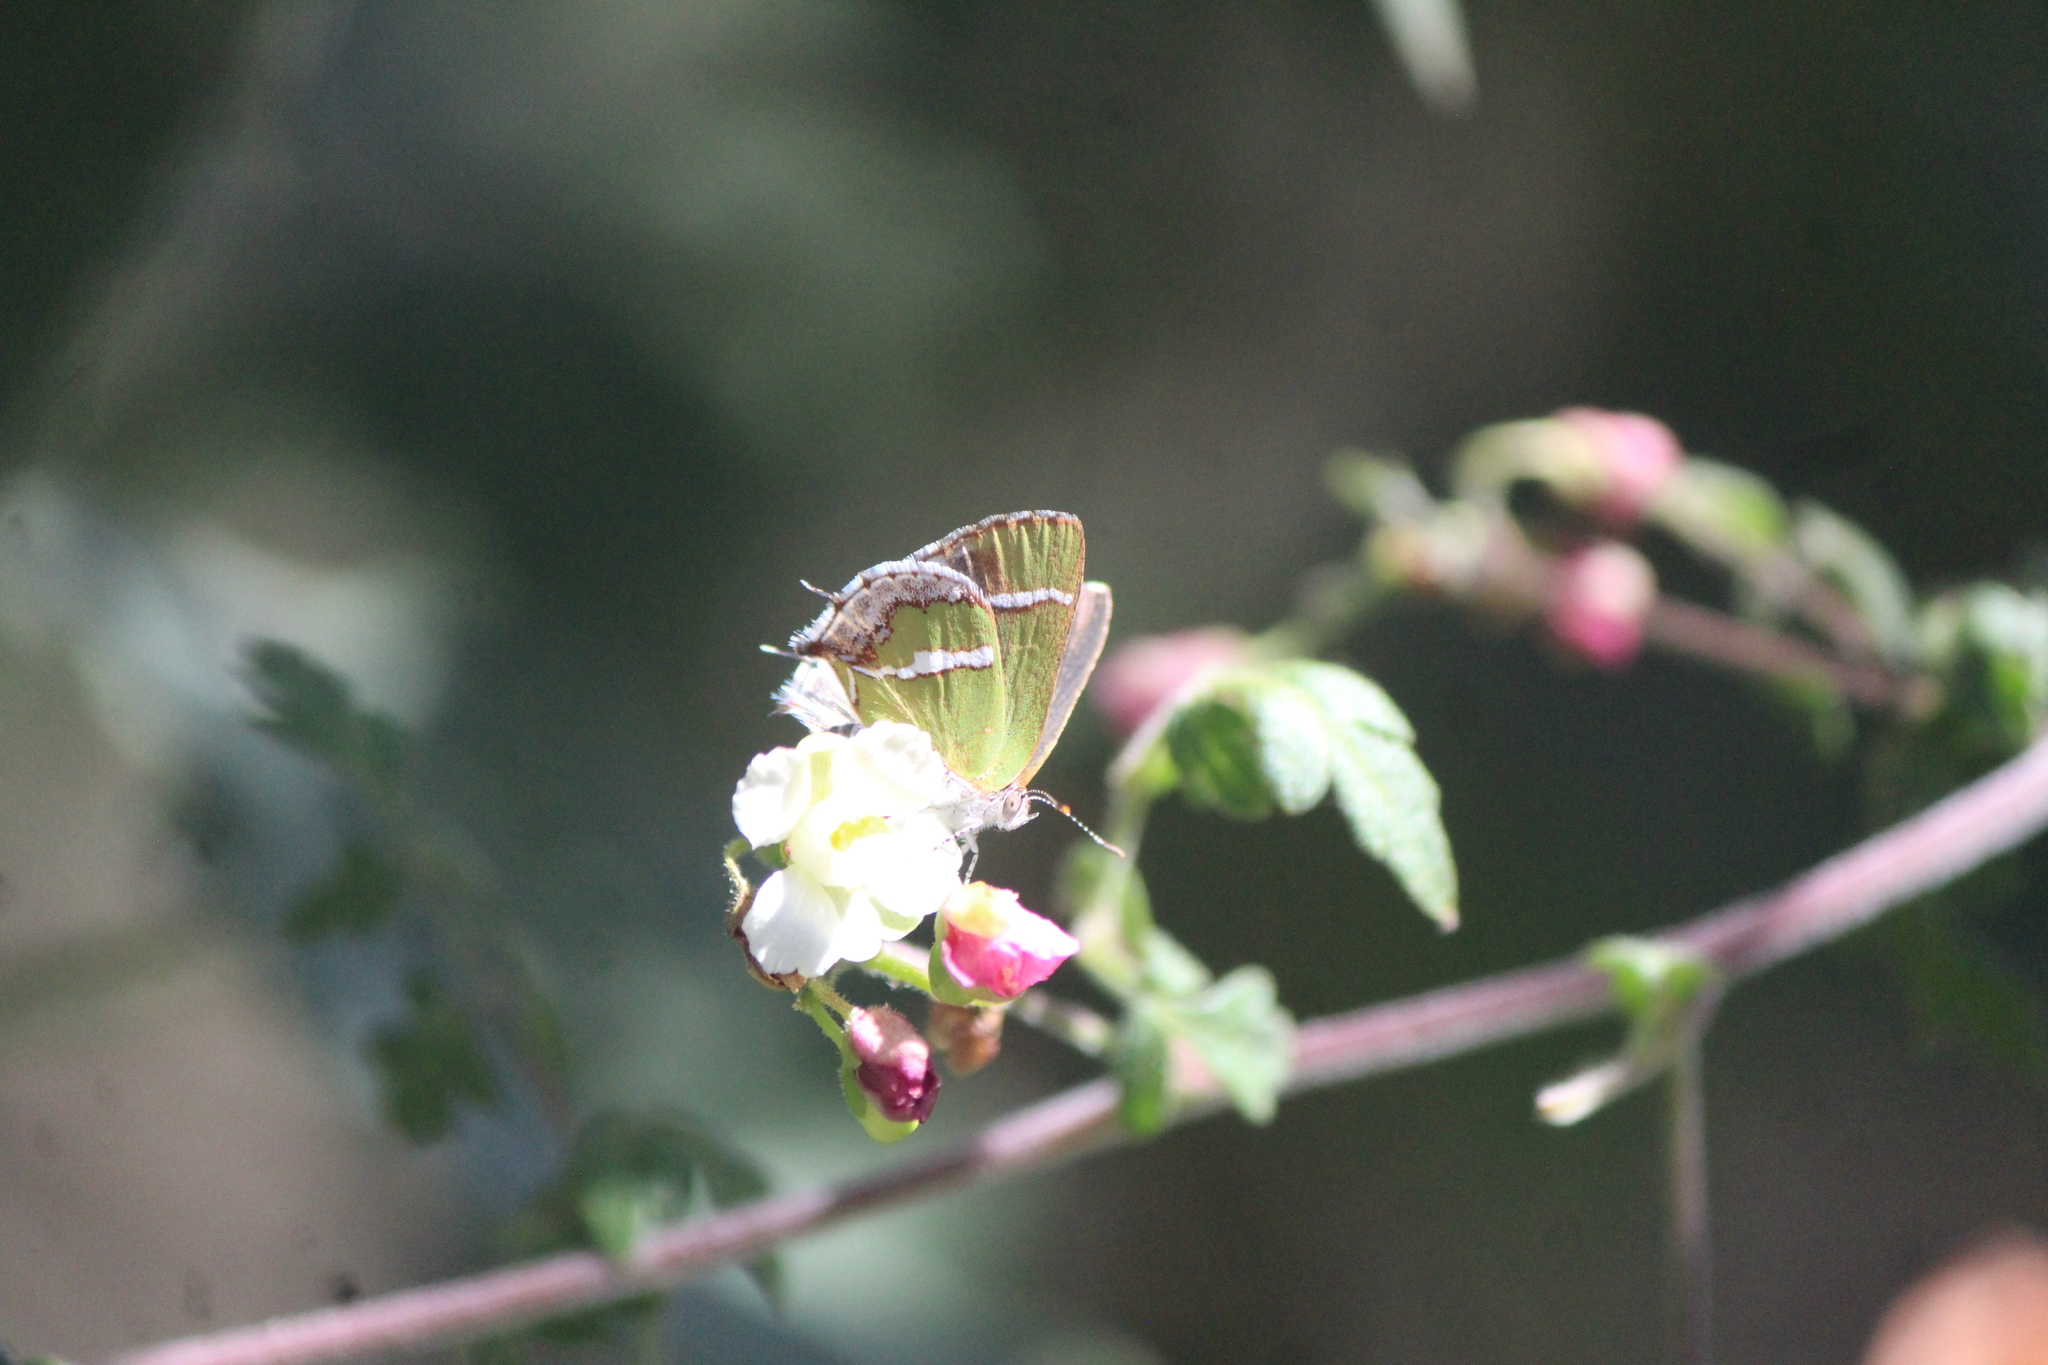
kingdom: Animalia
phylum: Arthropoda
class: Insecta
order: Lepidoptera
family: Lycaenidae
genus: Chlorostrymon
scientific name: Chlorostrymon simaethis
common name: Silver-banded hairstreak
